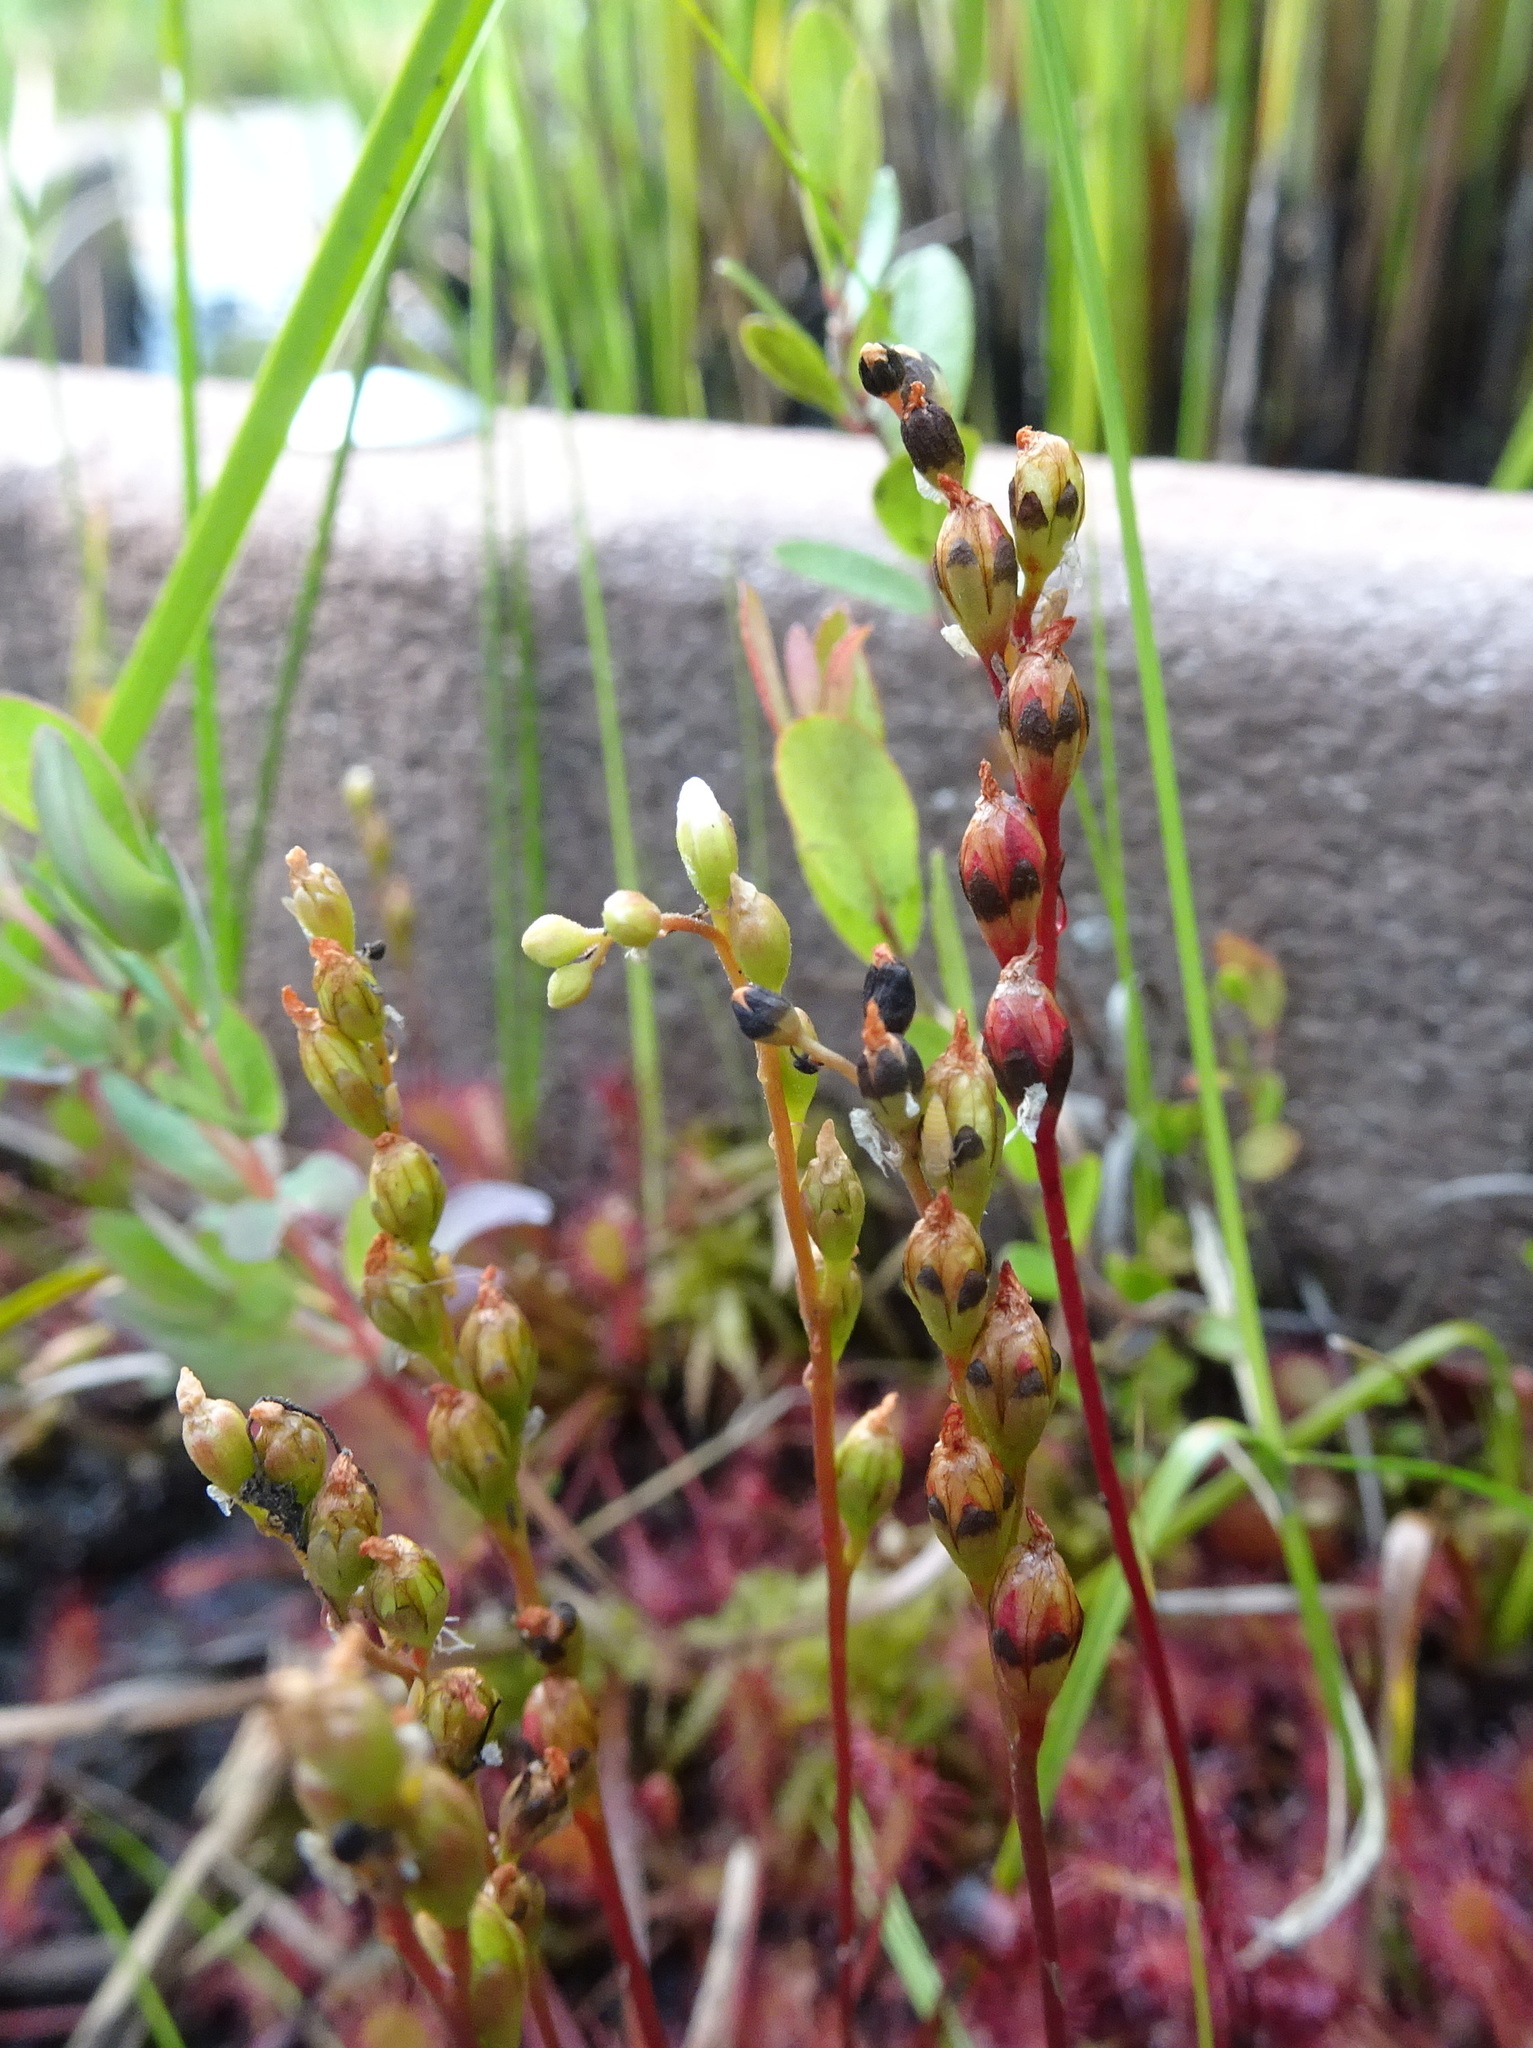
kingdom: Plantae
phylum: Tracheophyta
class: Magnoliopsida
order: Caryophyllales
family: Droseraceae
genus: Drosera
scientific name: Drosera intermedia
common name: Oblong-leaved sundew
